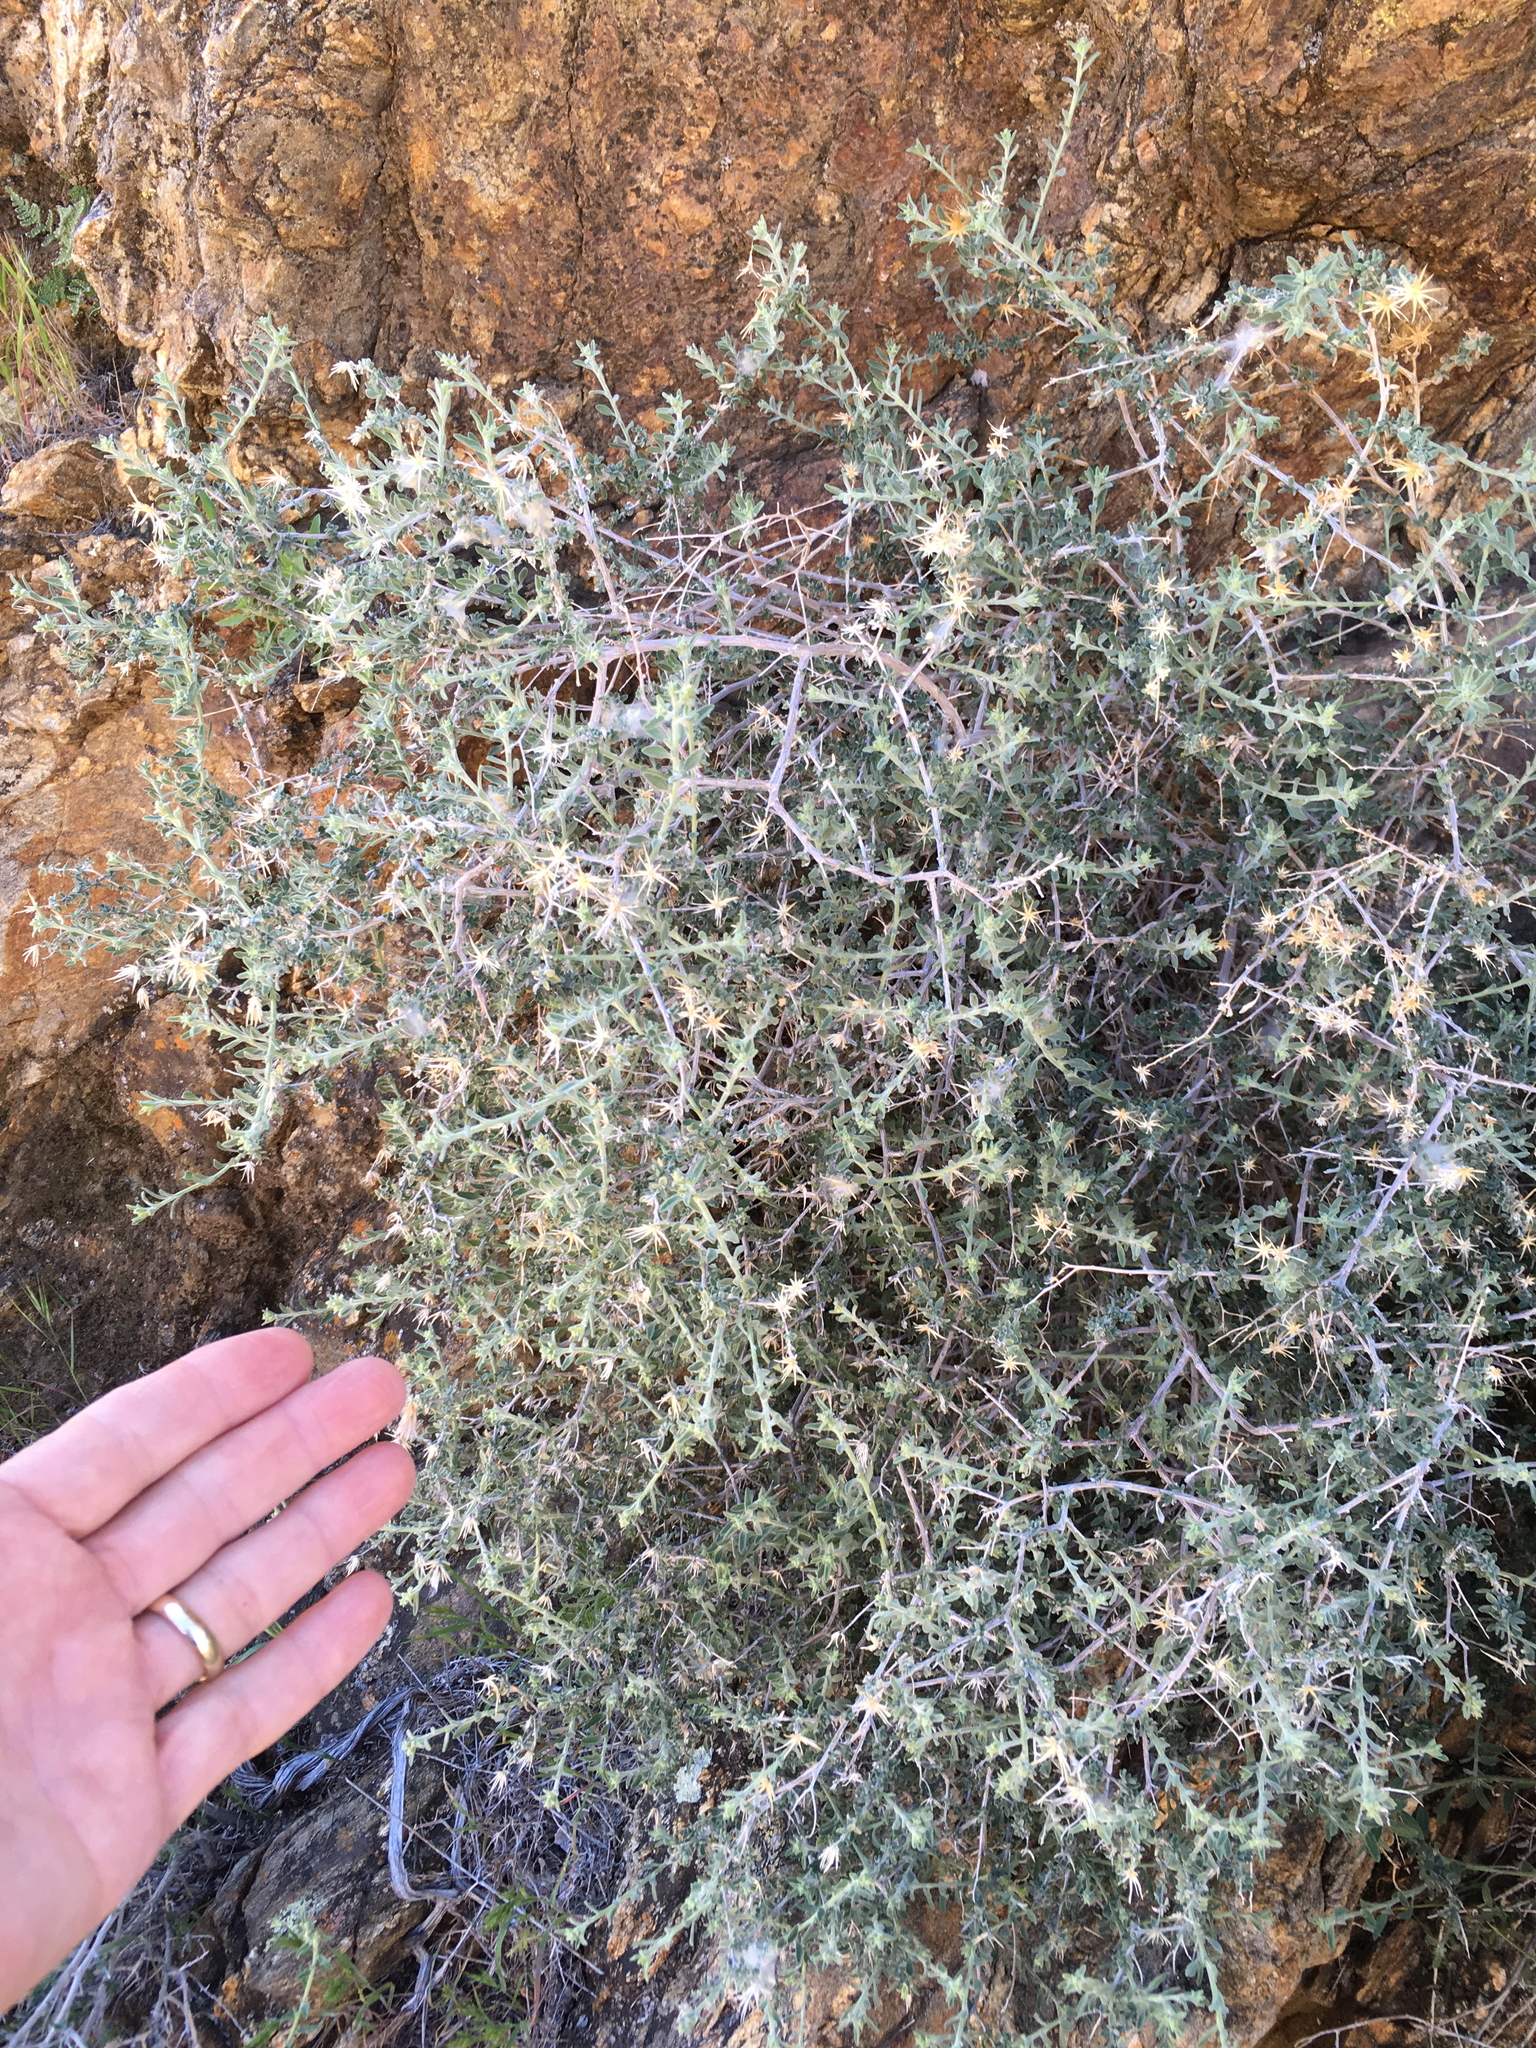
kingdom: Plantae
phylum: Tracheophyta
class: Magnoliopsida
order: Asterales
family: Asteraceae
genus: Brickellia
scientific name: Brickellia frutescens
